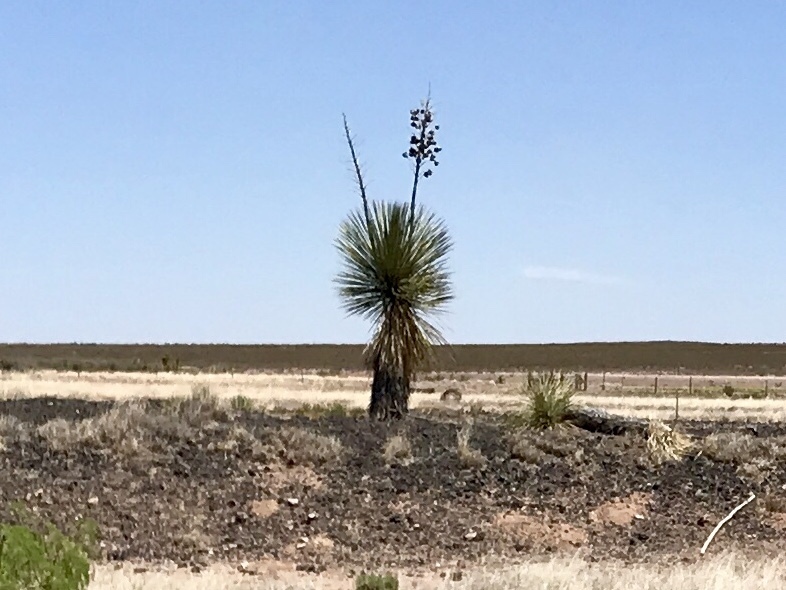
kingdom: Plantae
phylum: Tracheophyta
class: Liliopsida
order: Asparagales
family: Asparagaceae
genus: Yucca
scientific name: Yucca elata
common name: Palmella
